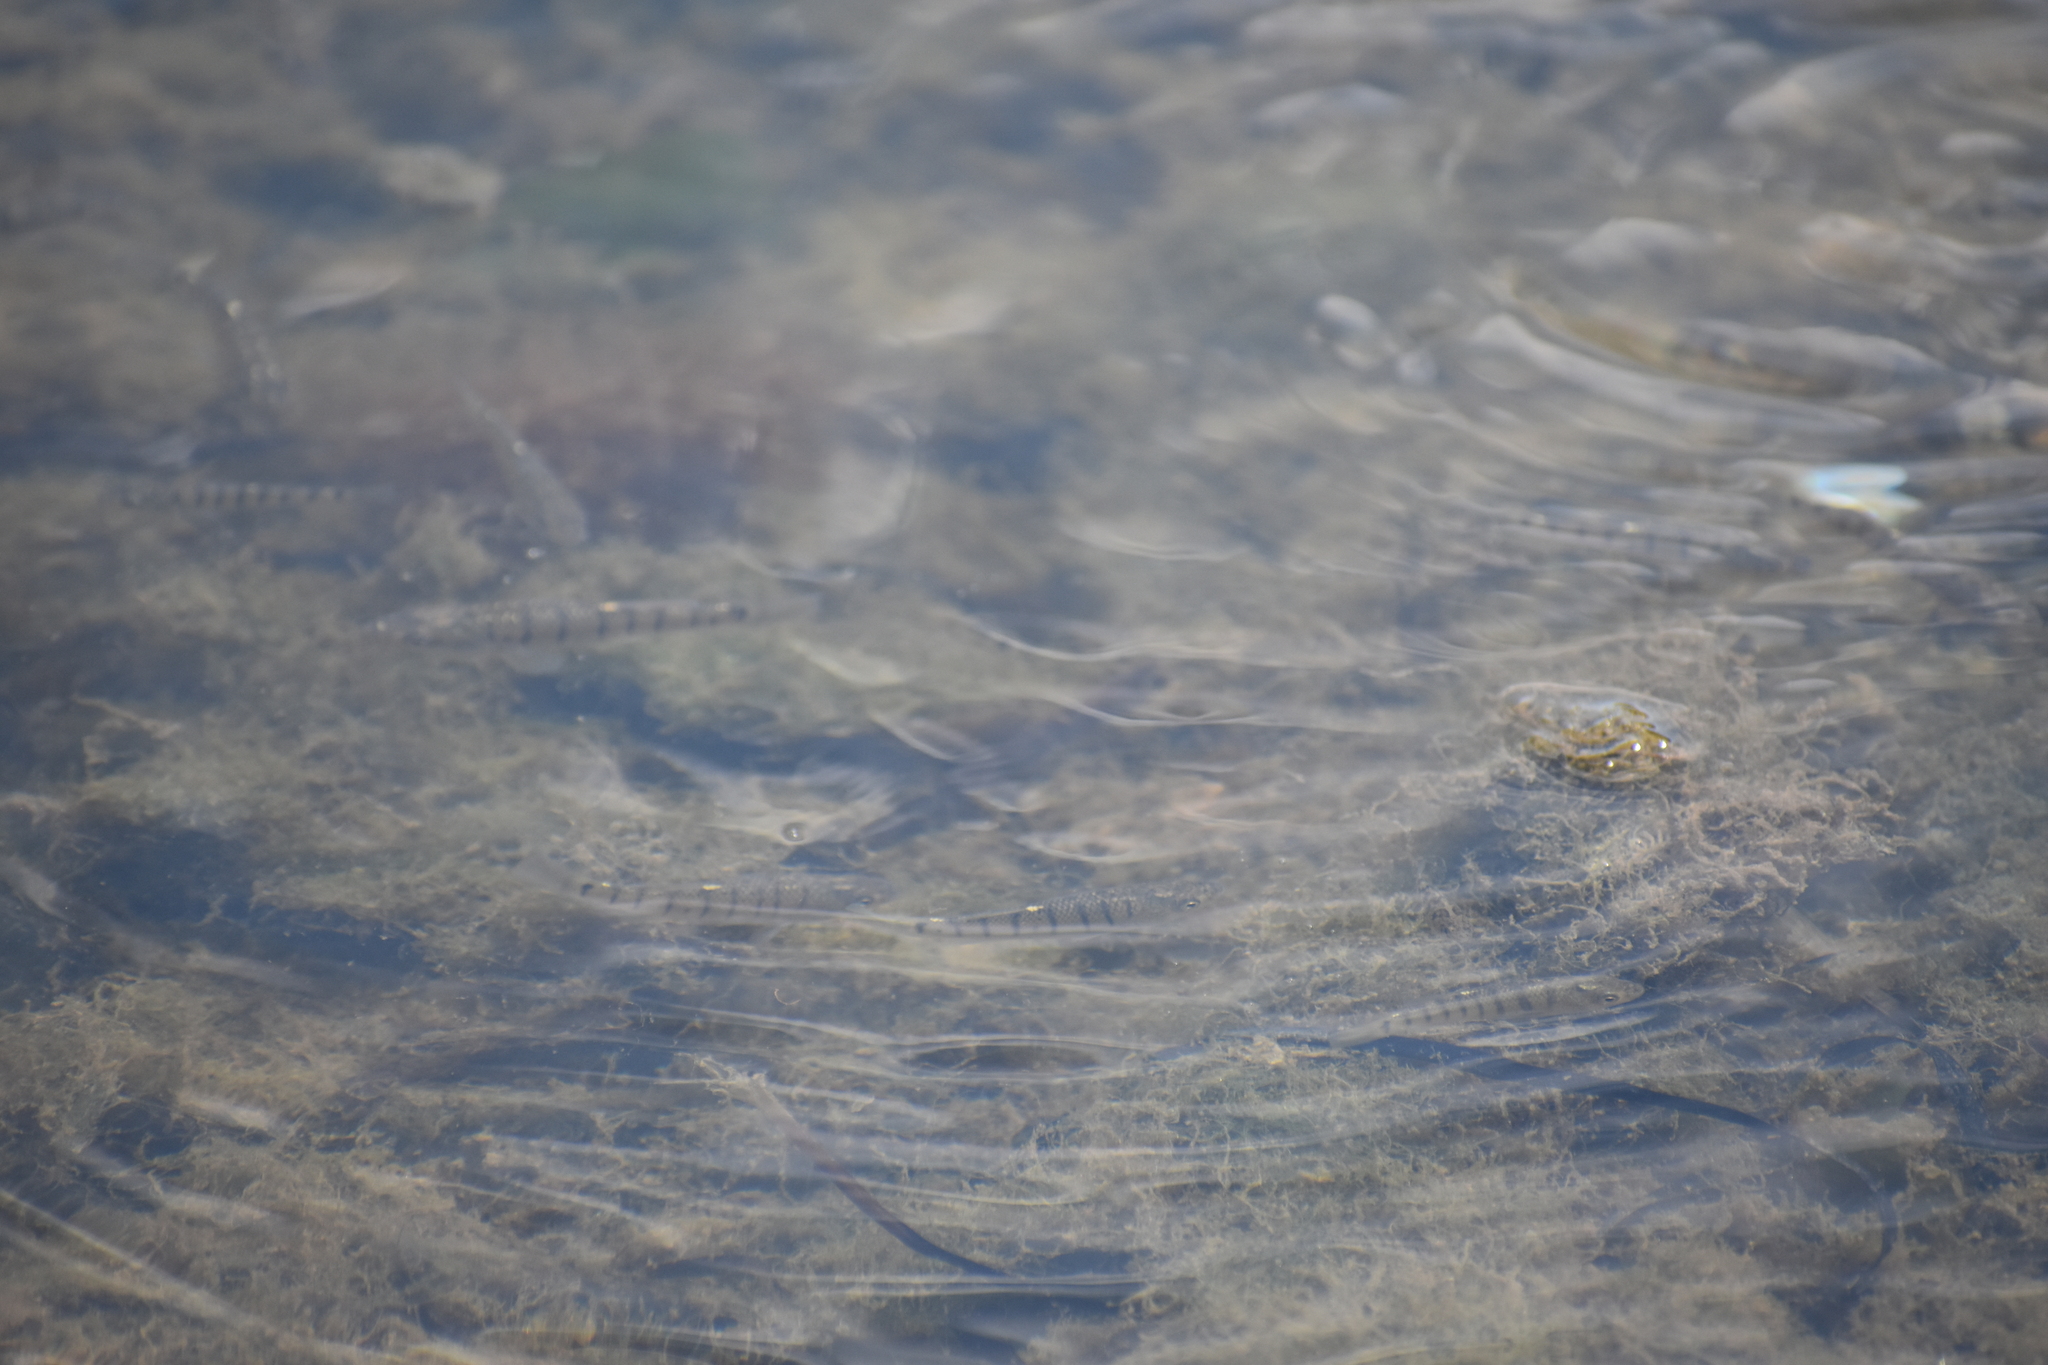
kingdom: Animalia
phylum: Chordata
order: Cyprinodontiformes
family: Fundulidae
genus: Fundulus
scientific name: Fundulus majalis
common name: Striped killifish
